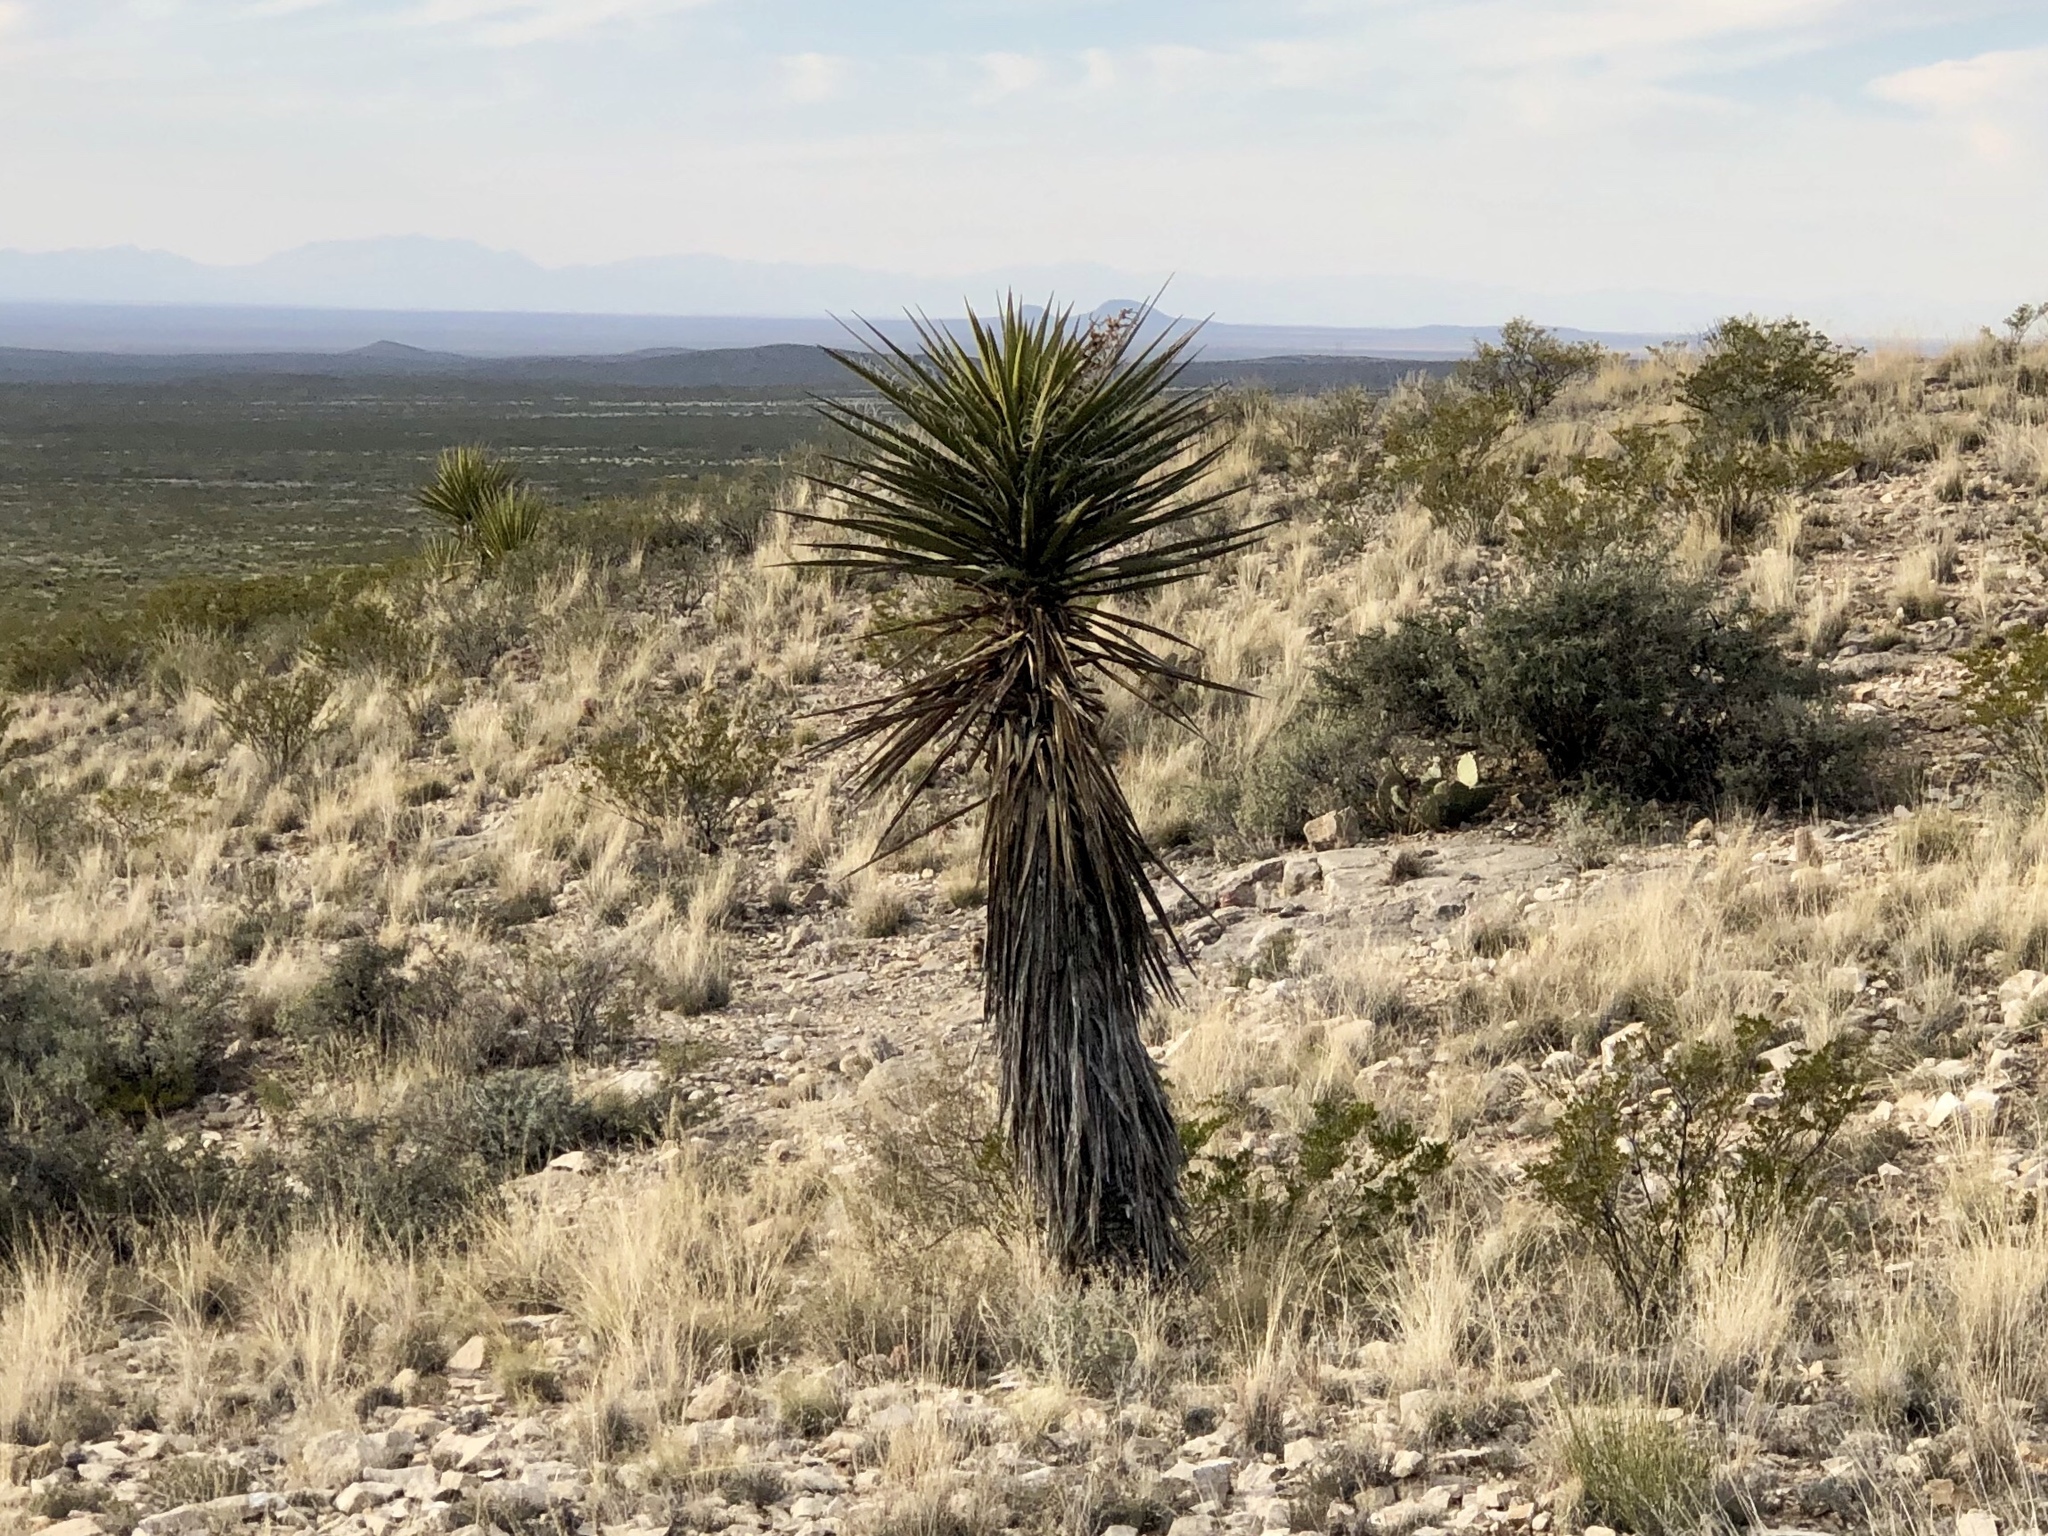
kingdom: Plantae
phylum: Tracheophyta
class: Liliopsida
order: Asparagales
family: Asparagaceae
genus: Yucca
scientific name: Yucca treculiana
